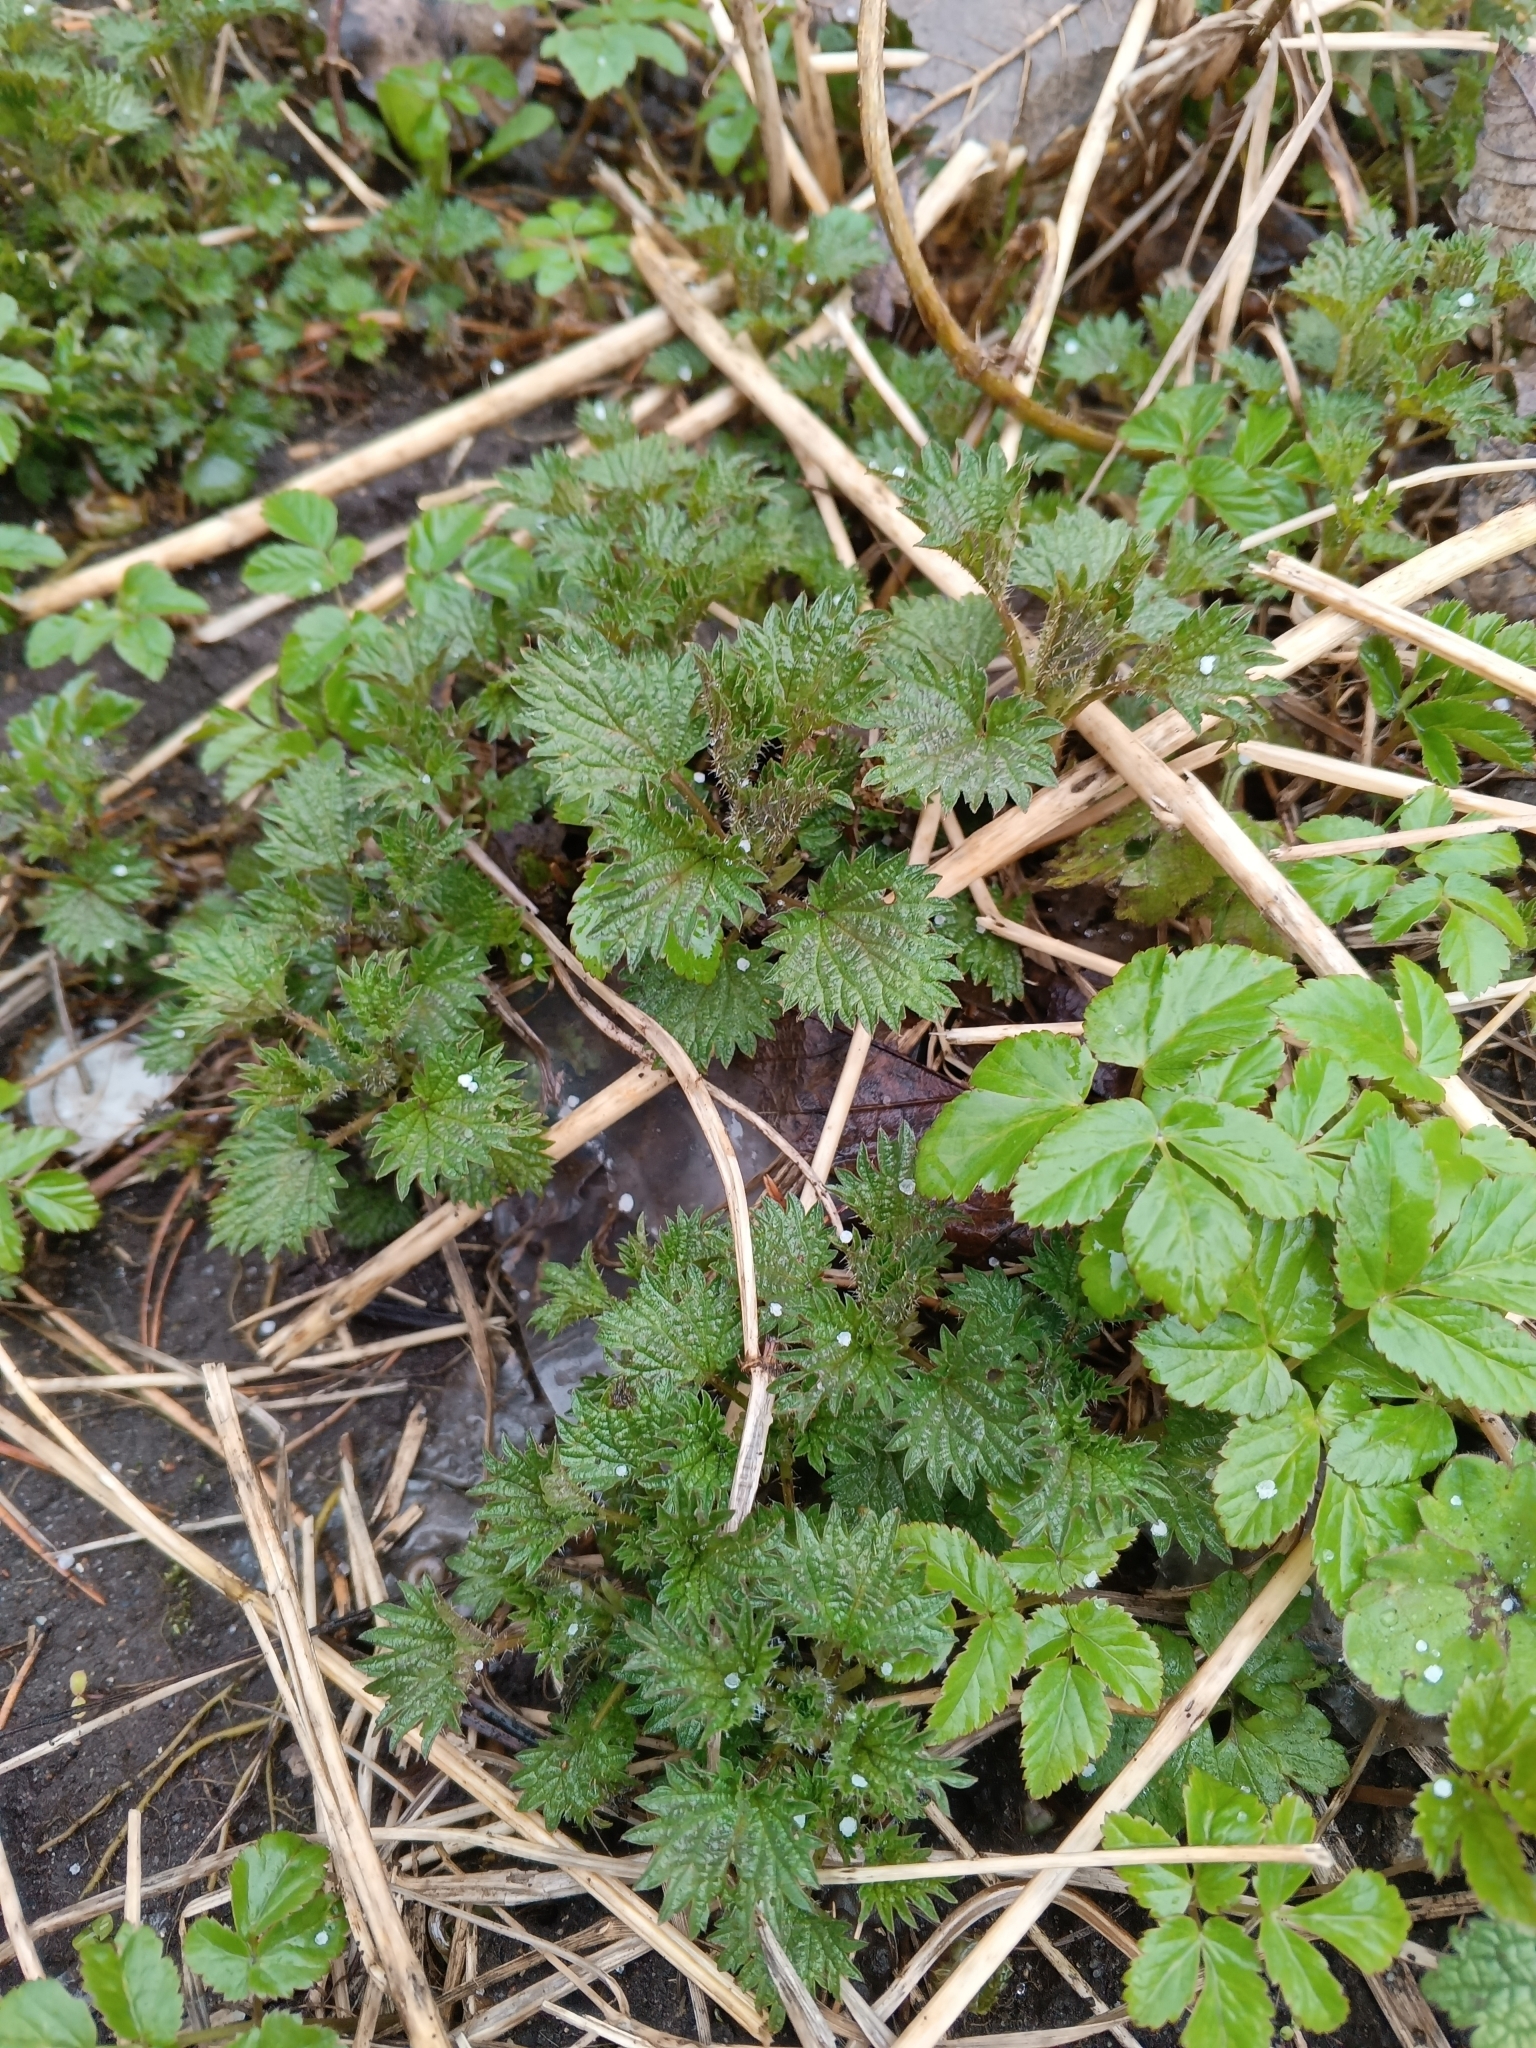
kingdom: Plantae
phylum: Tracheophyta
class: Magnoliopsida
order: Rosales
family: Urticaceae
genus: Urtica
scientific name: Urtica dioica
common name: Common nettle
